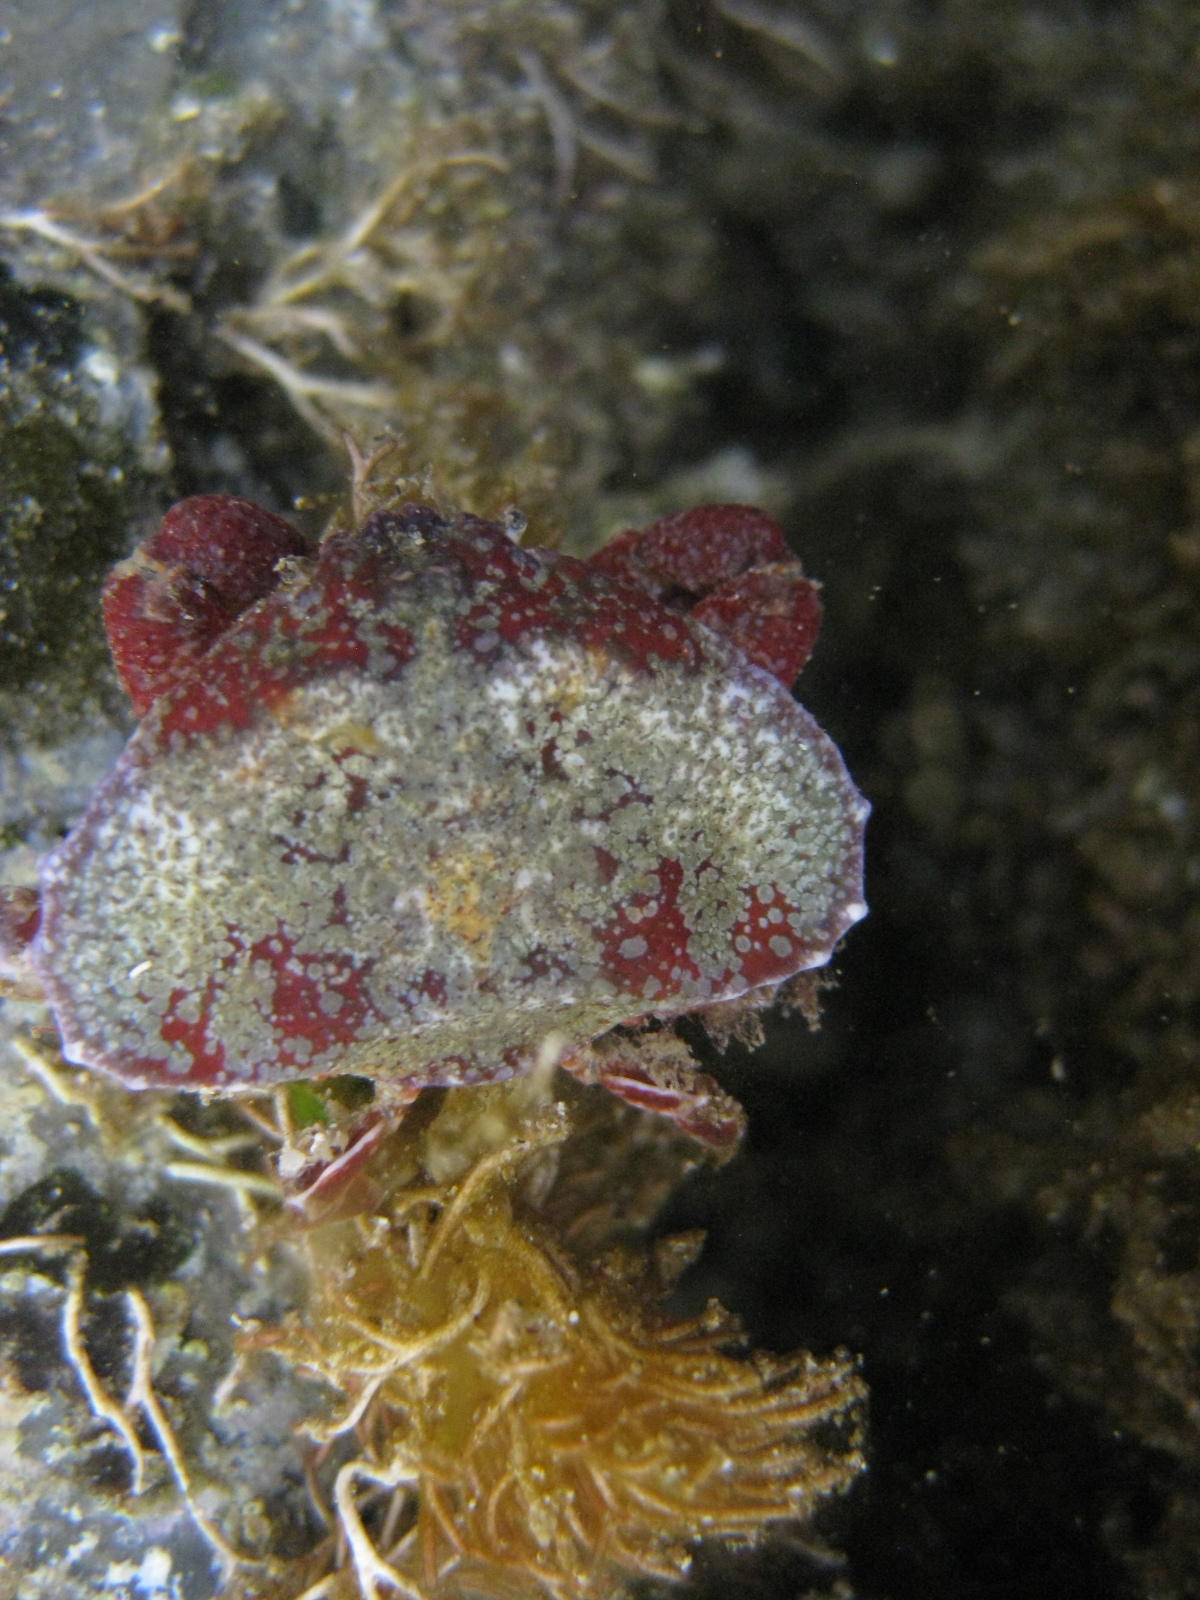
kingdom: Animalia
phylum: Arthropoda
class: Malacostraca
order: Decapoda
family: Majidae
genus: Eurynolambrus
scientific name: Eurynolambrus australis
